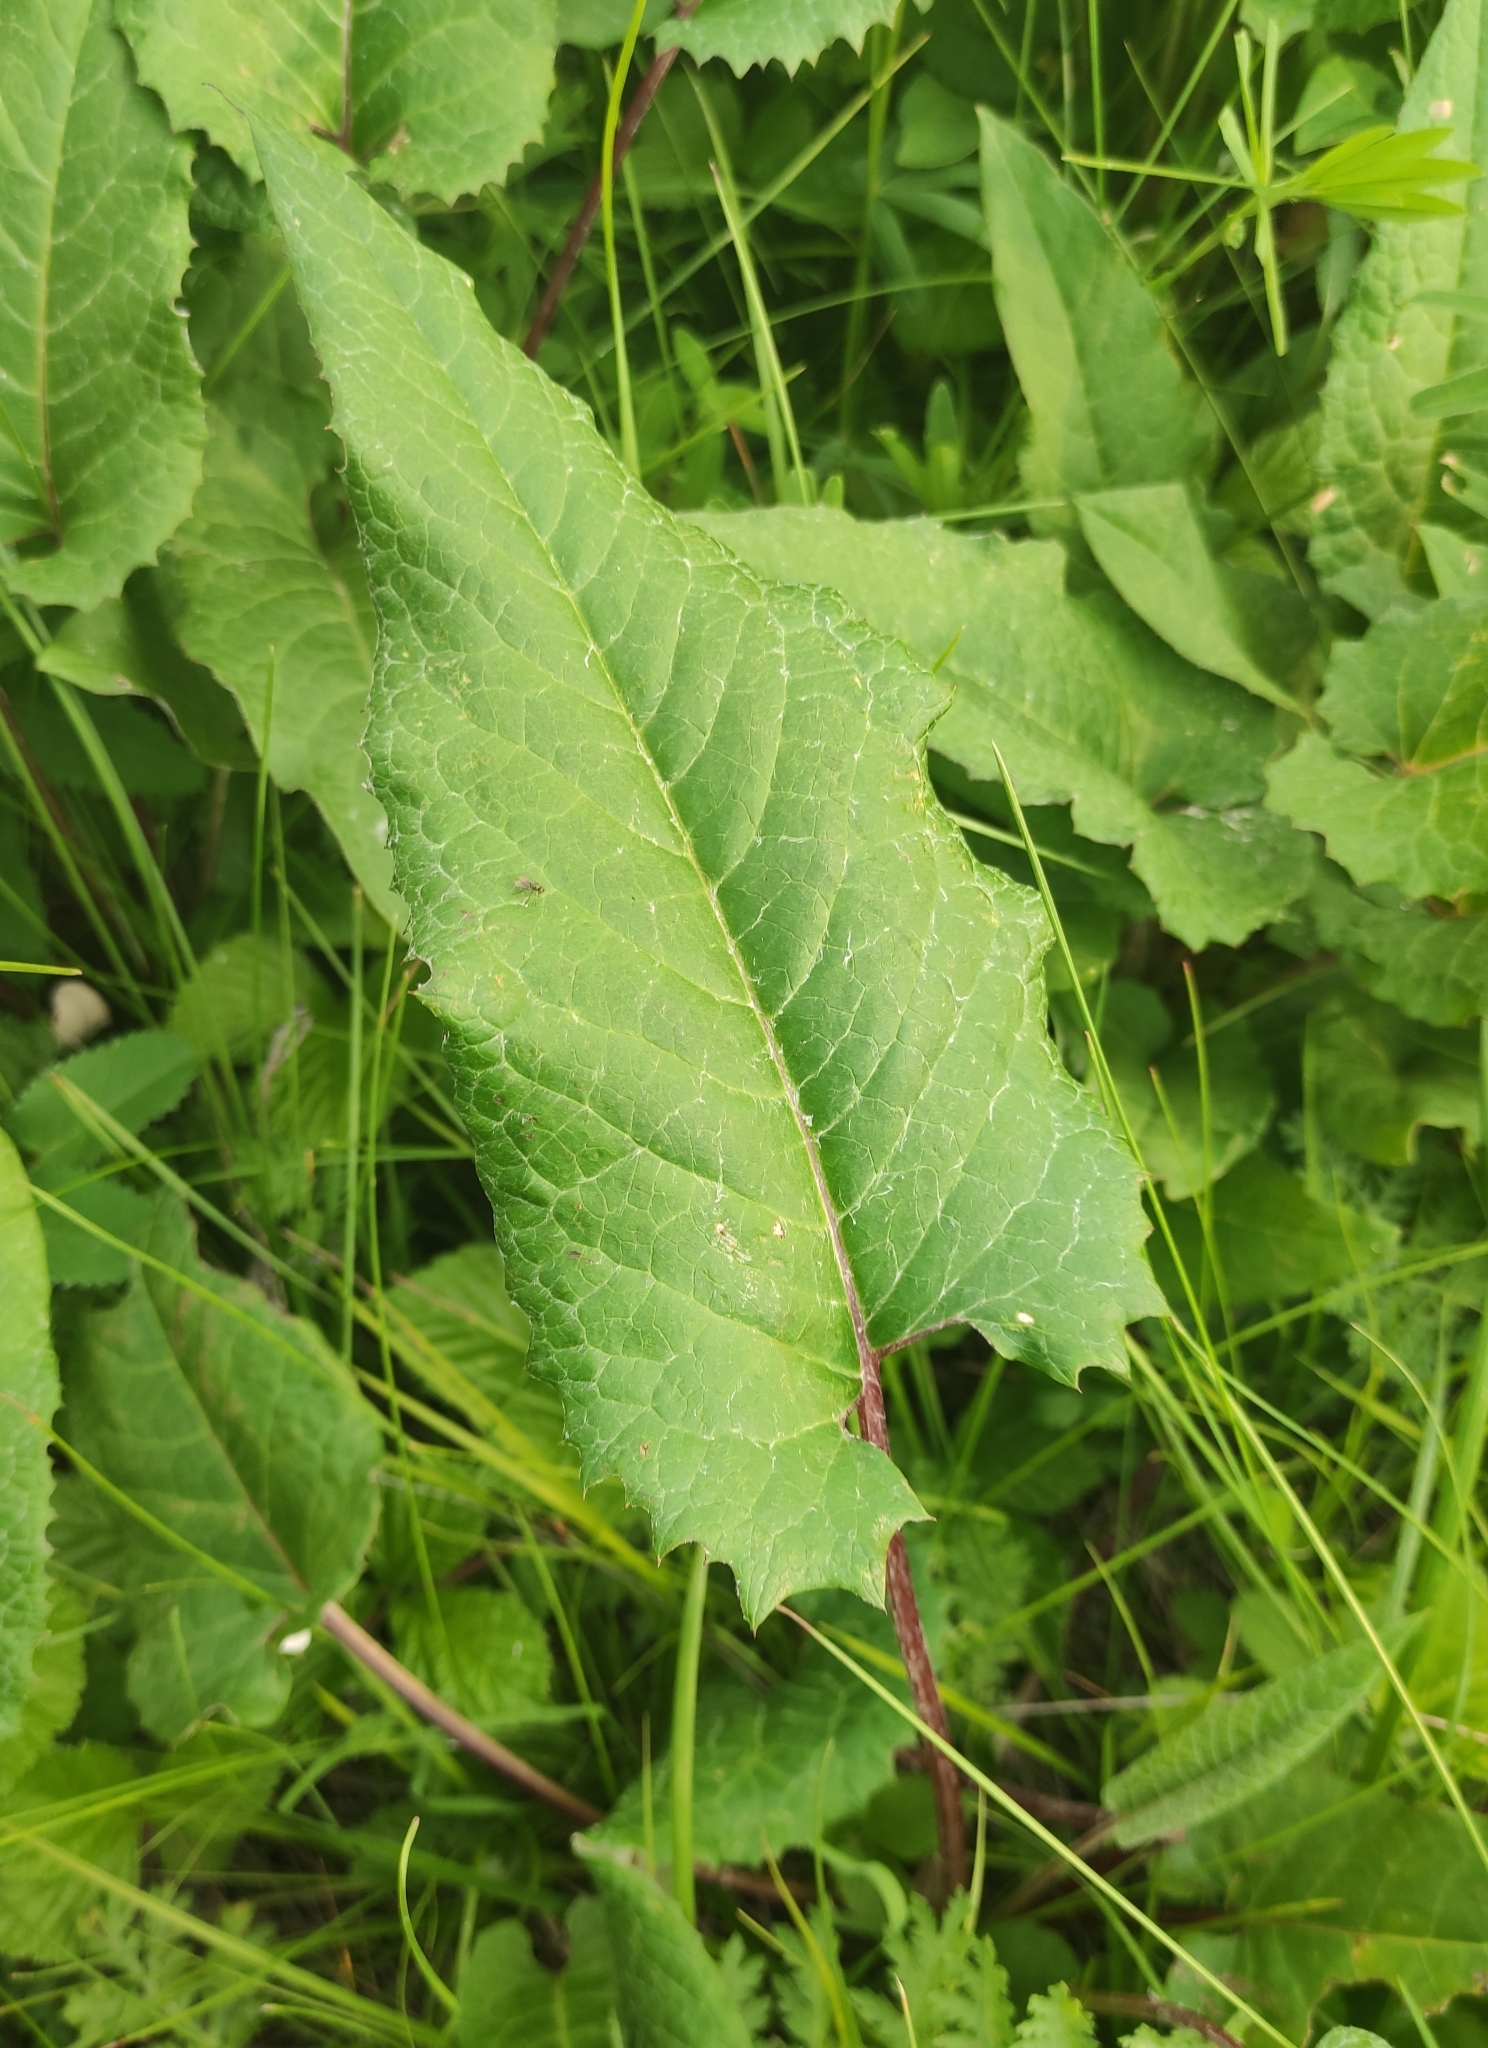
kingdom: Plantae
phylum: Tracheophyta
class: Magnoliopsida
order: Asterales
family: Asteraceae
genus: Saussurea
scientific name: Saussurea controversa
